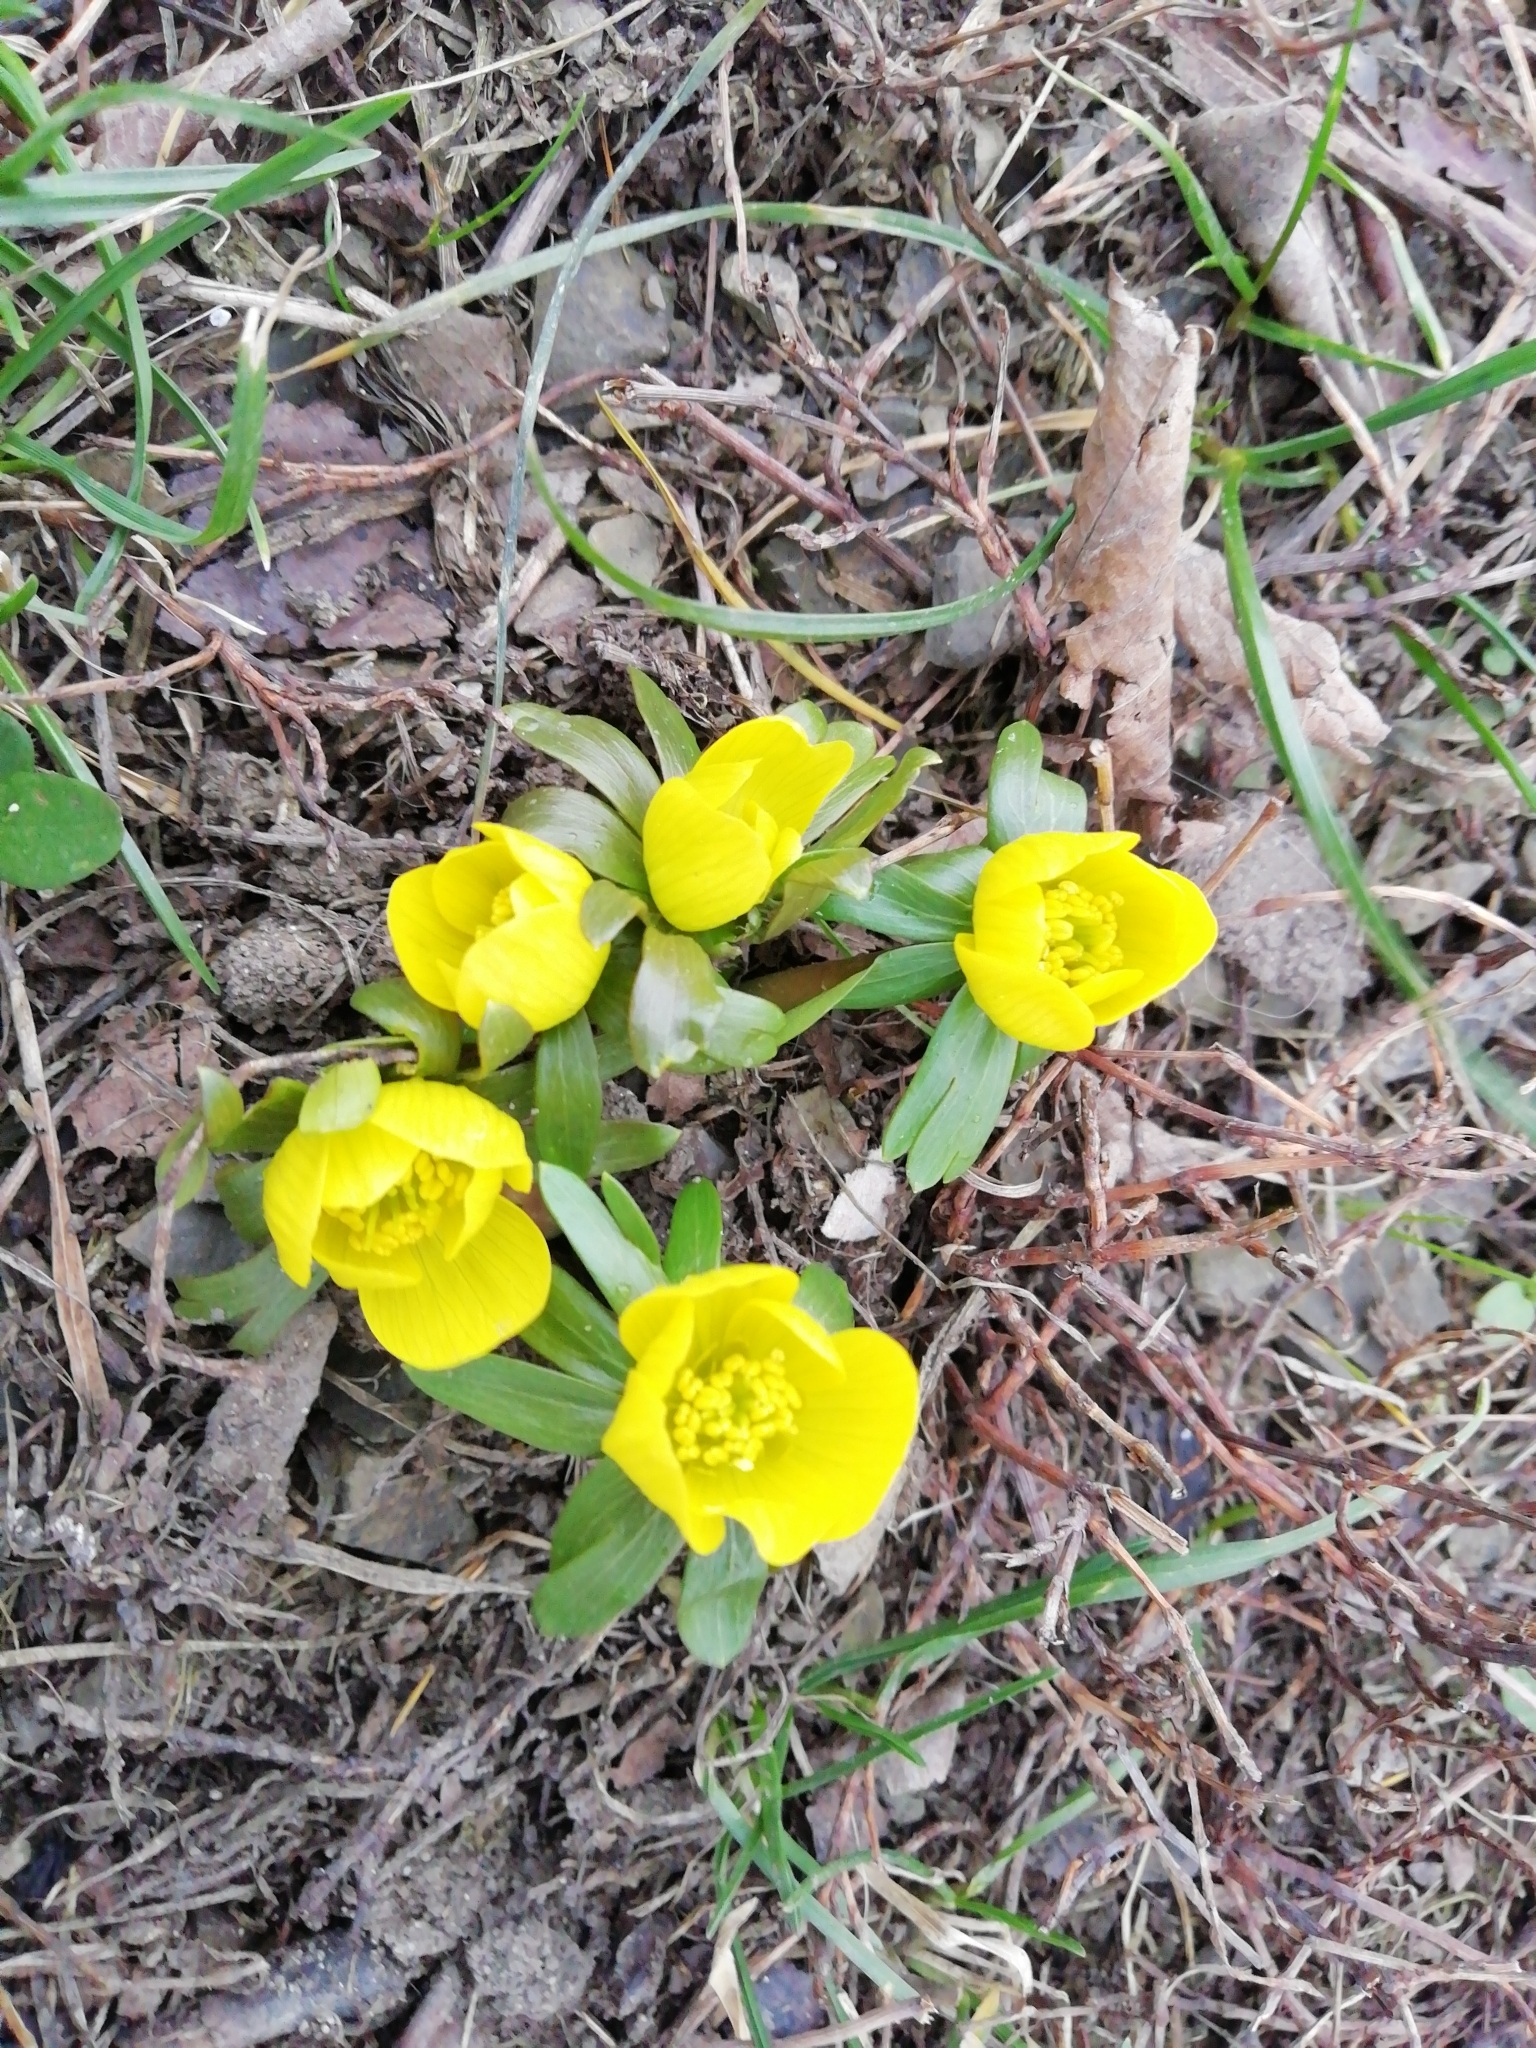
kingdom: Plantae
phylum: Tracheophyta
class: Magnoliopsida
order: Ranunculales
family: Ranunculaceae
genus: Eranthis
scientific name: Eranthis hyemalis
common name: Winter aconite
